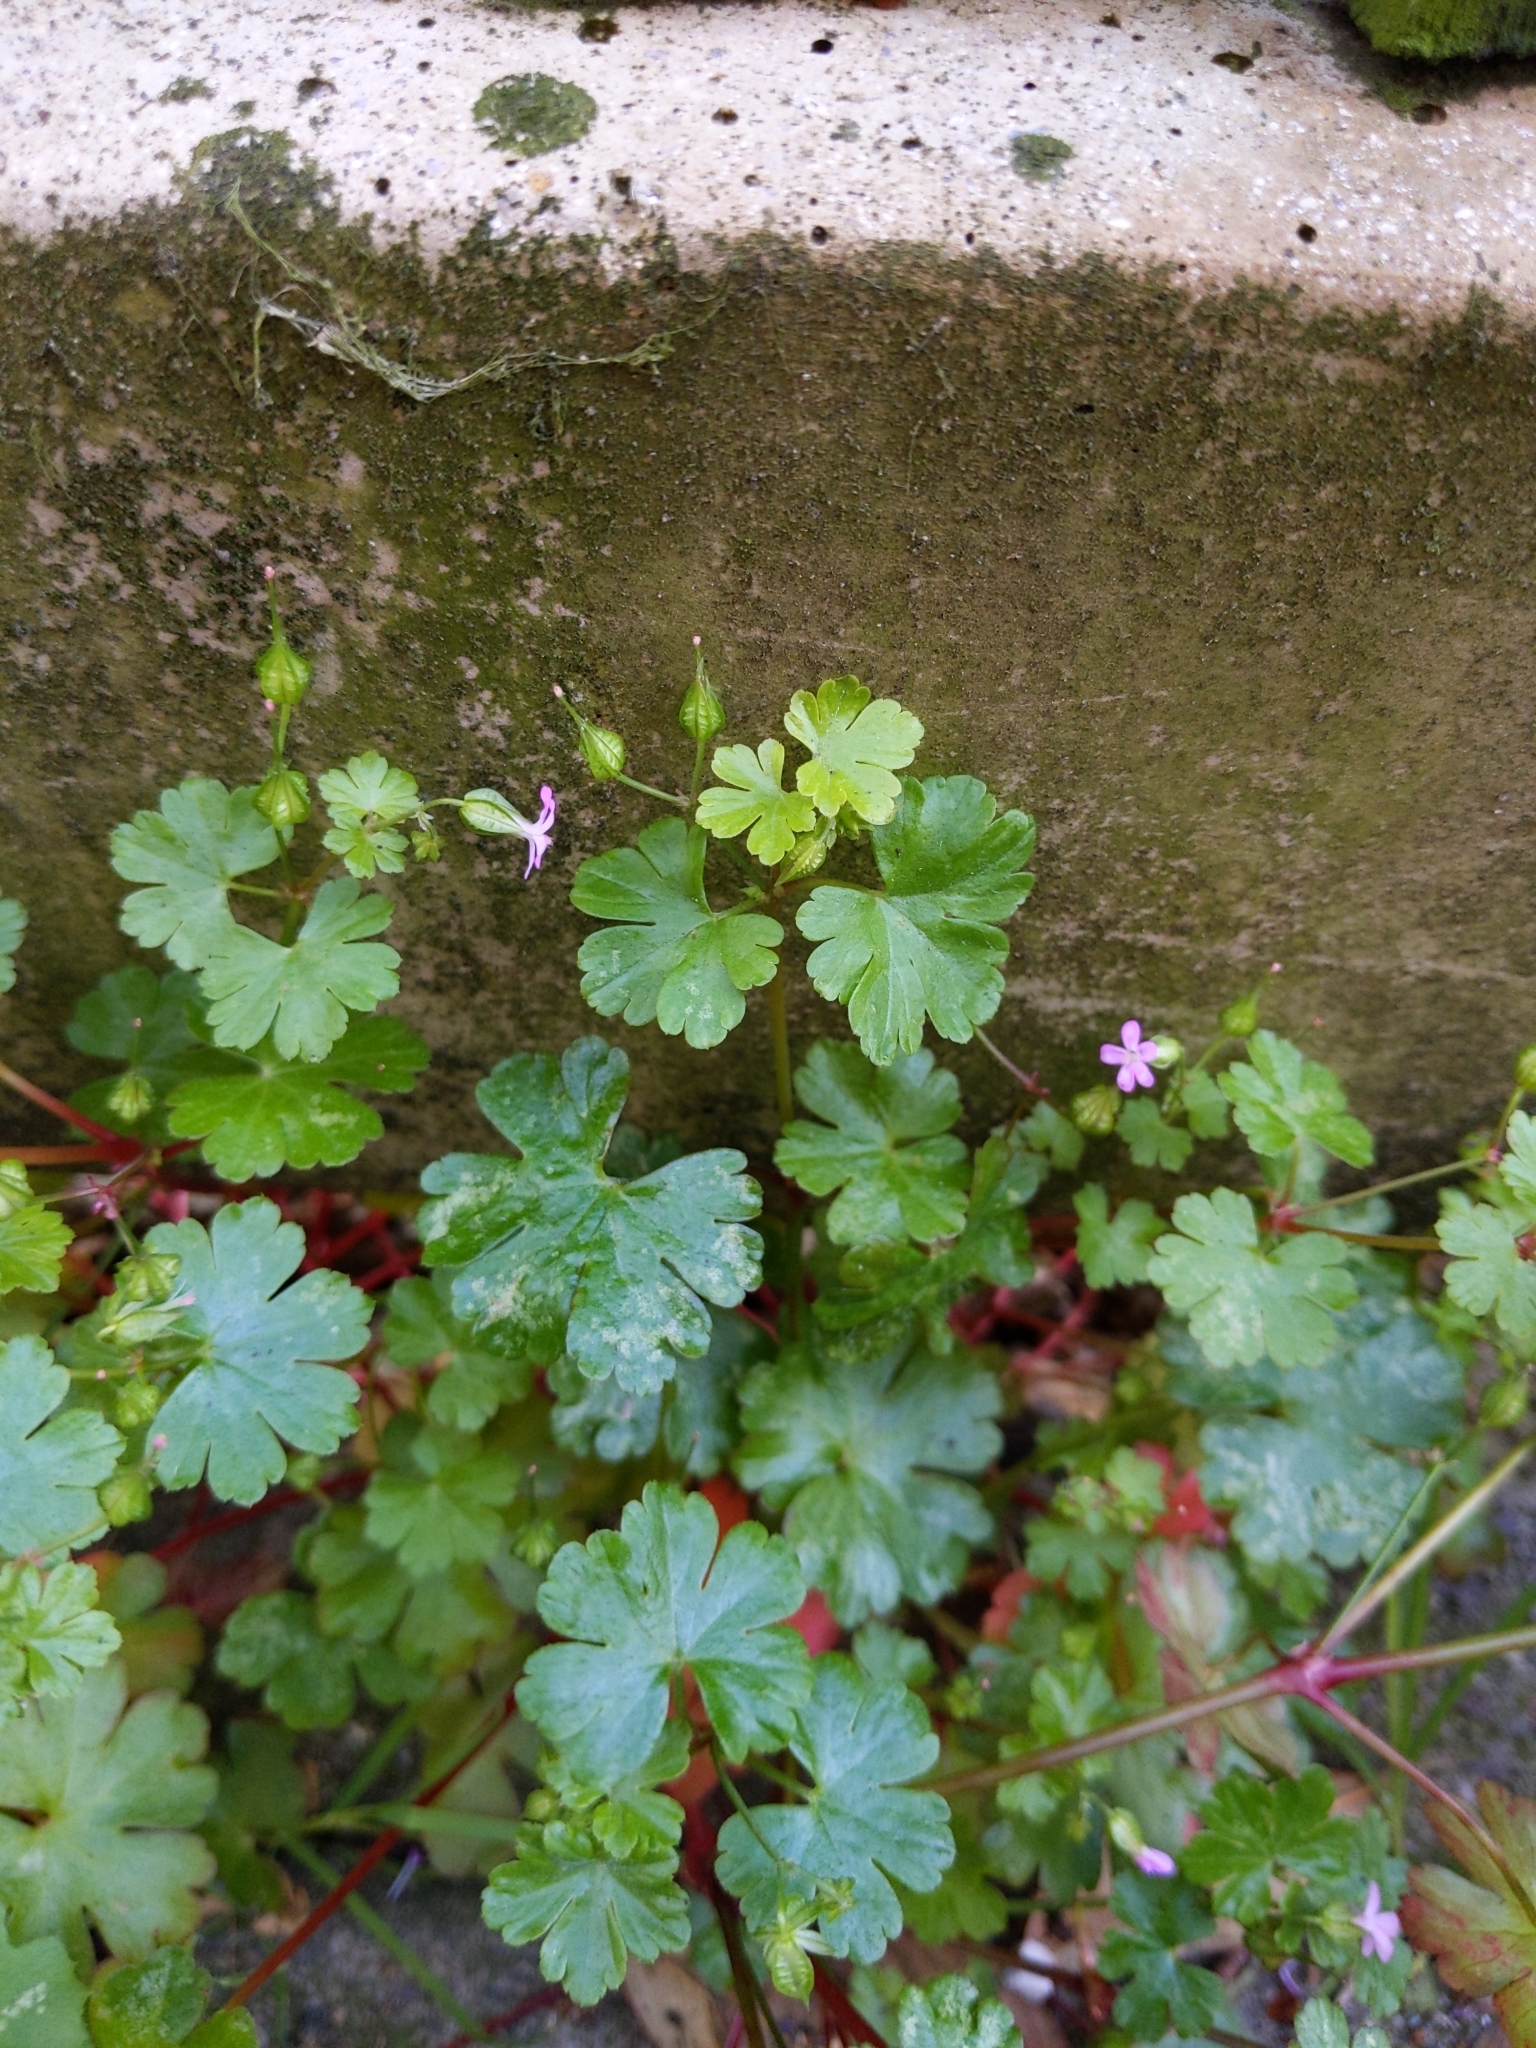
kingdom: Plantae
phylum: Tracheophyta
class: Magnoliopsida
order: Geraniales
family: Geraniaceae
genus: Geranium
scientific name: Geranium lucidum
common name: Shining crane's-bill
